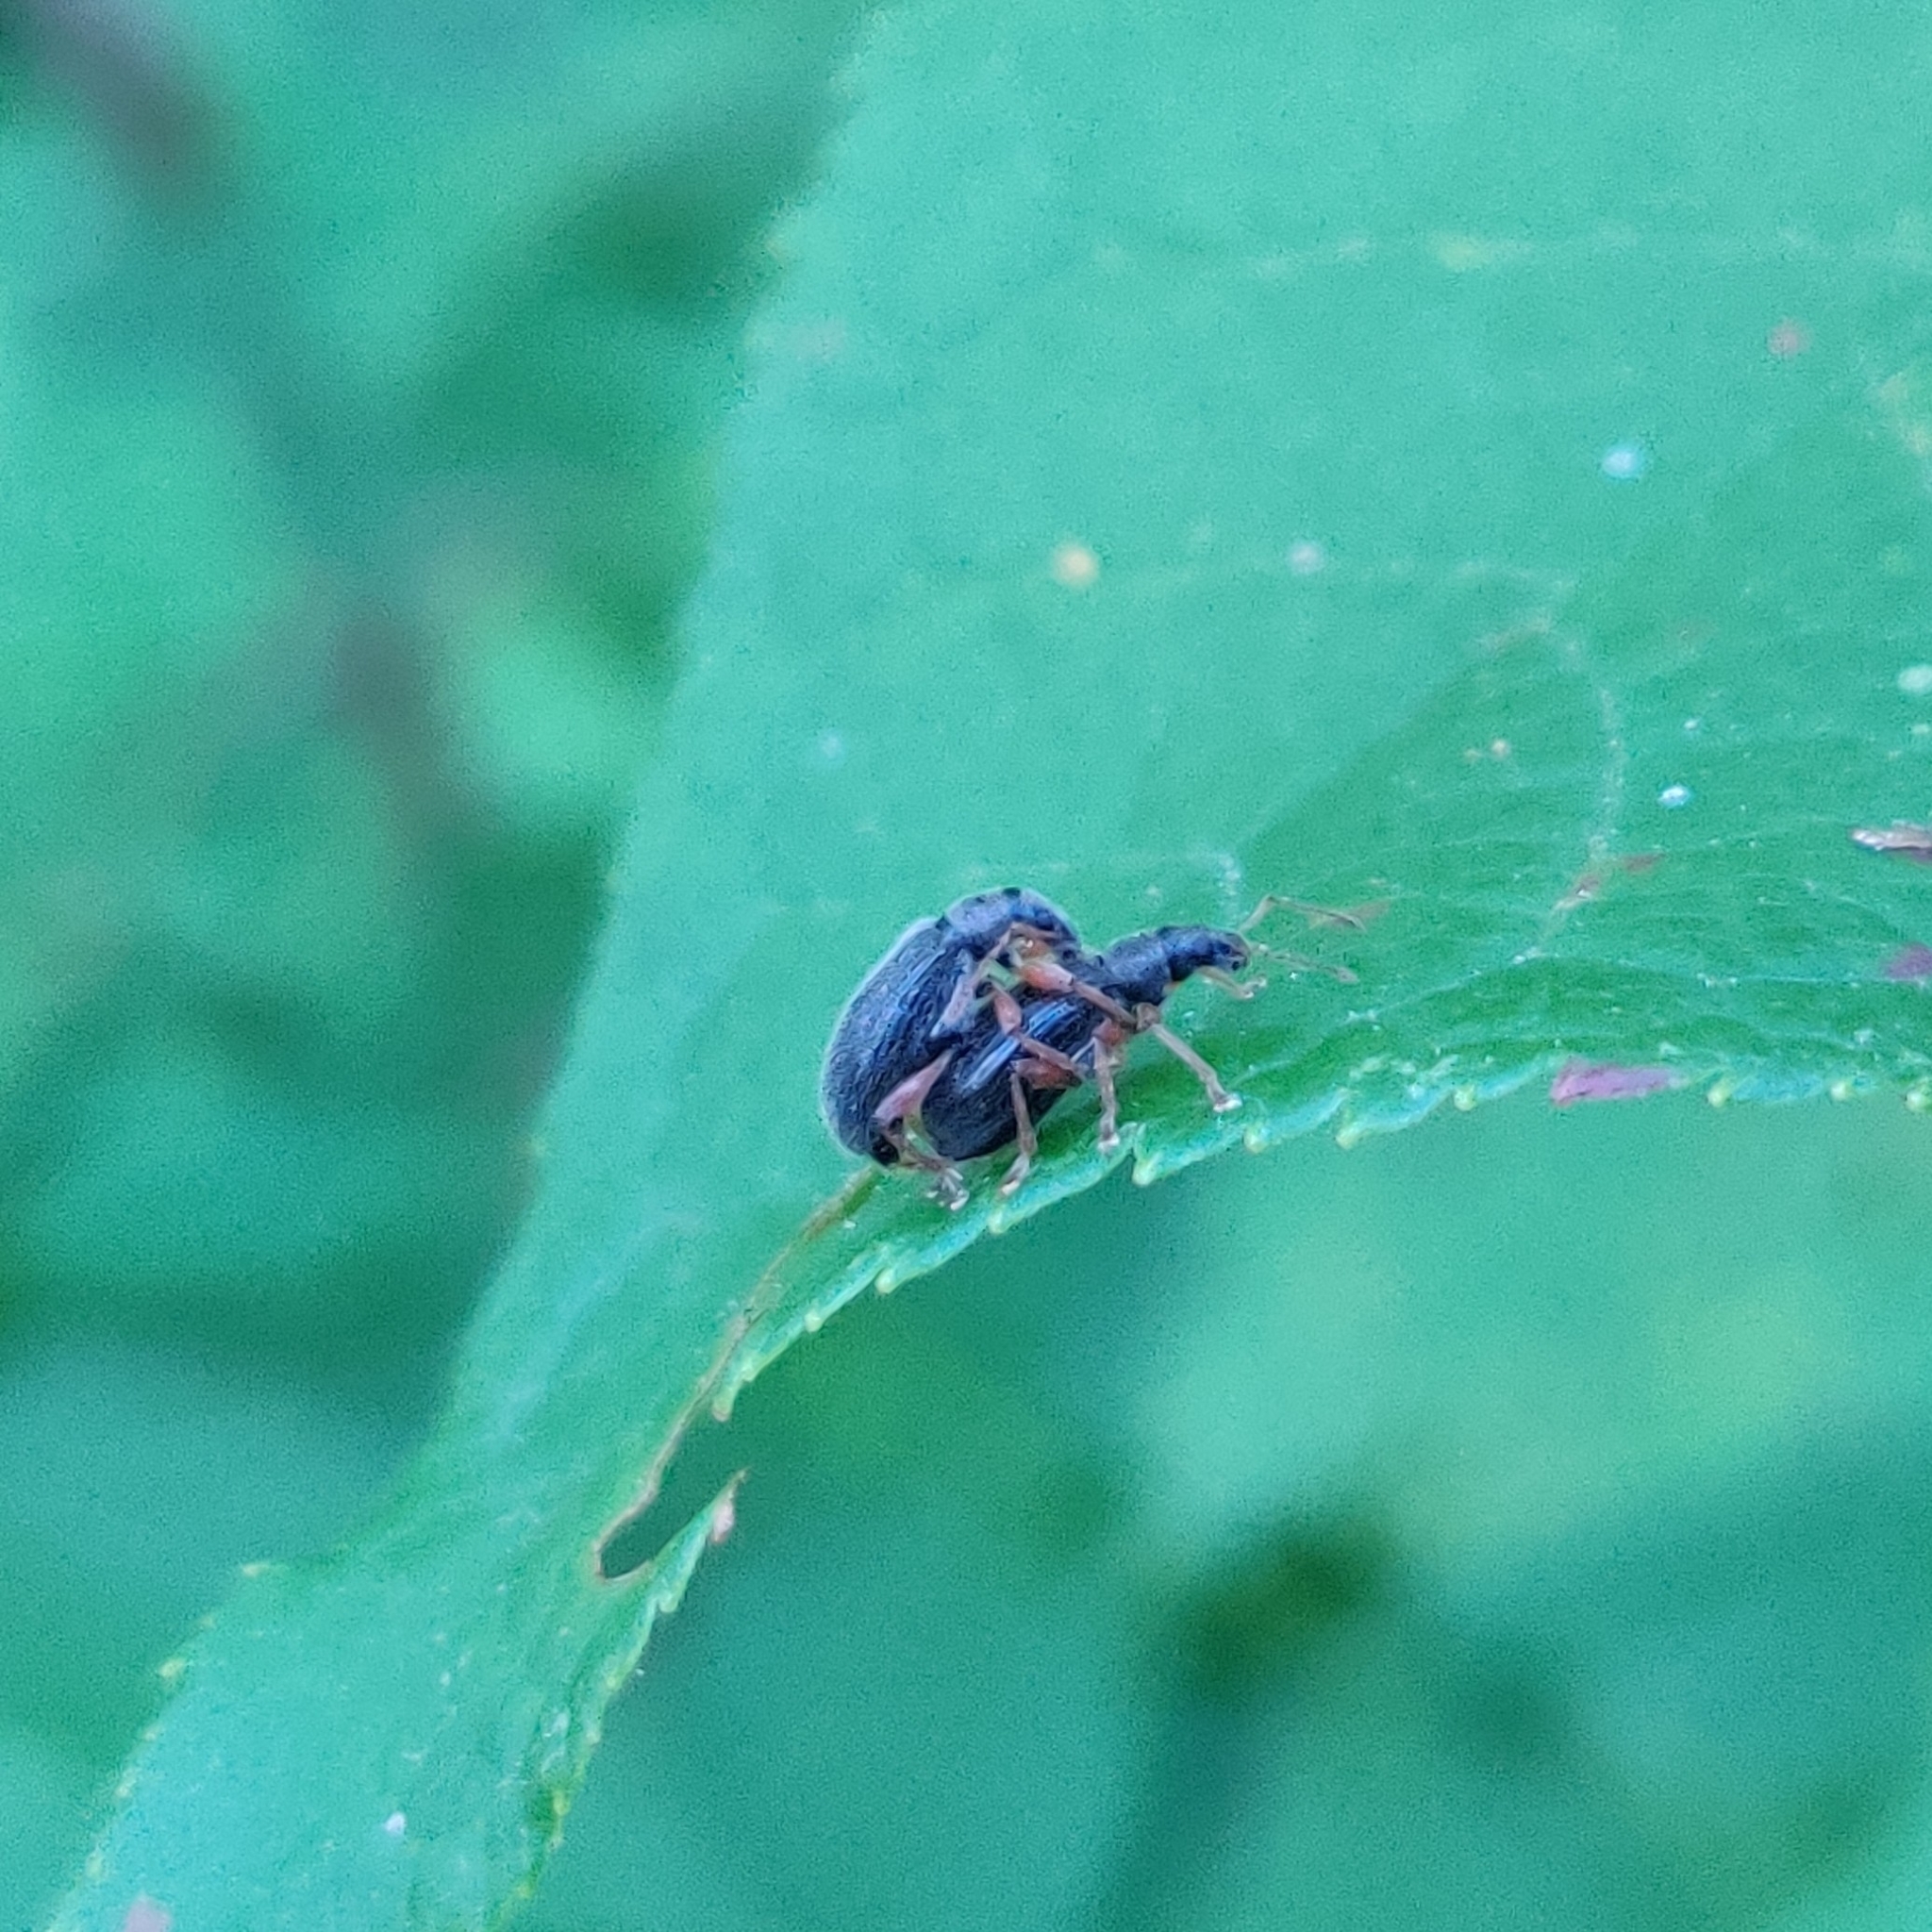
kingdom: Animalia
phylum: Arthropoda
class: Insecta
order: Coleoptera
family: Curculionidae
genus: Phyllobius
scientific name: Phyllobius oblongus
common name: Brown leaf weevil
